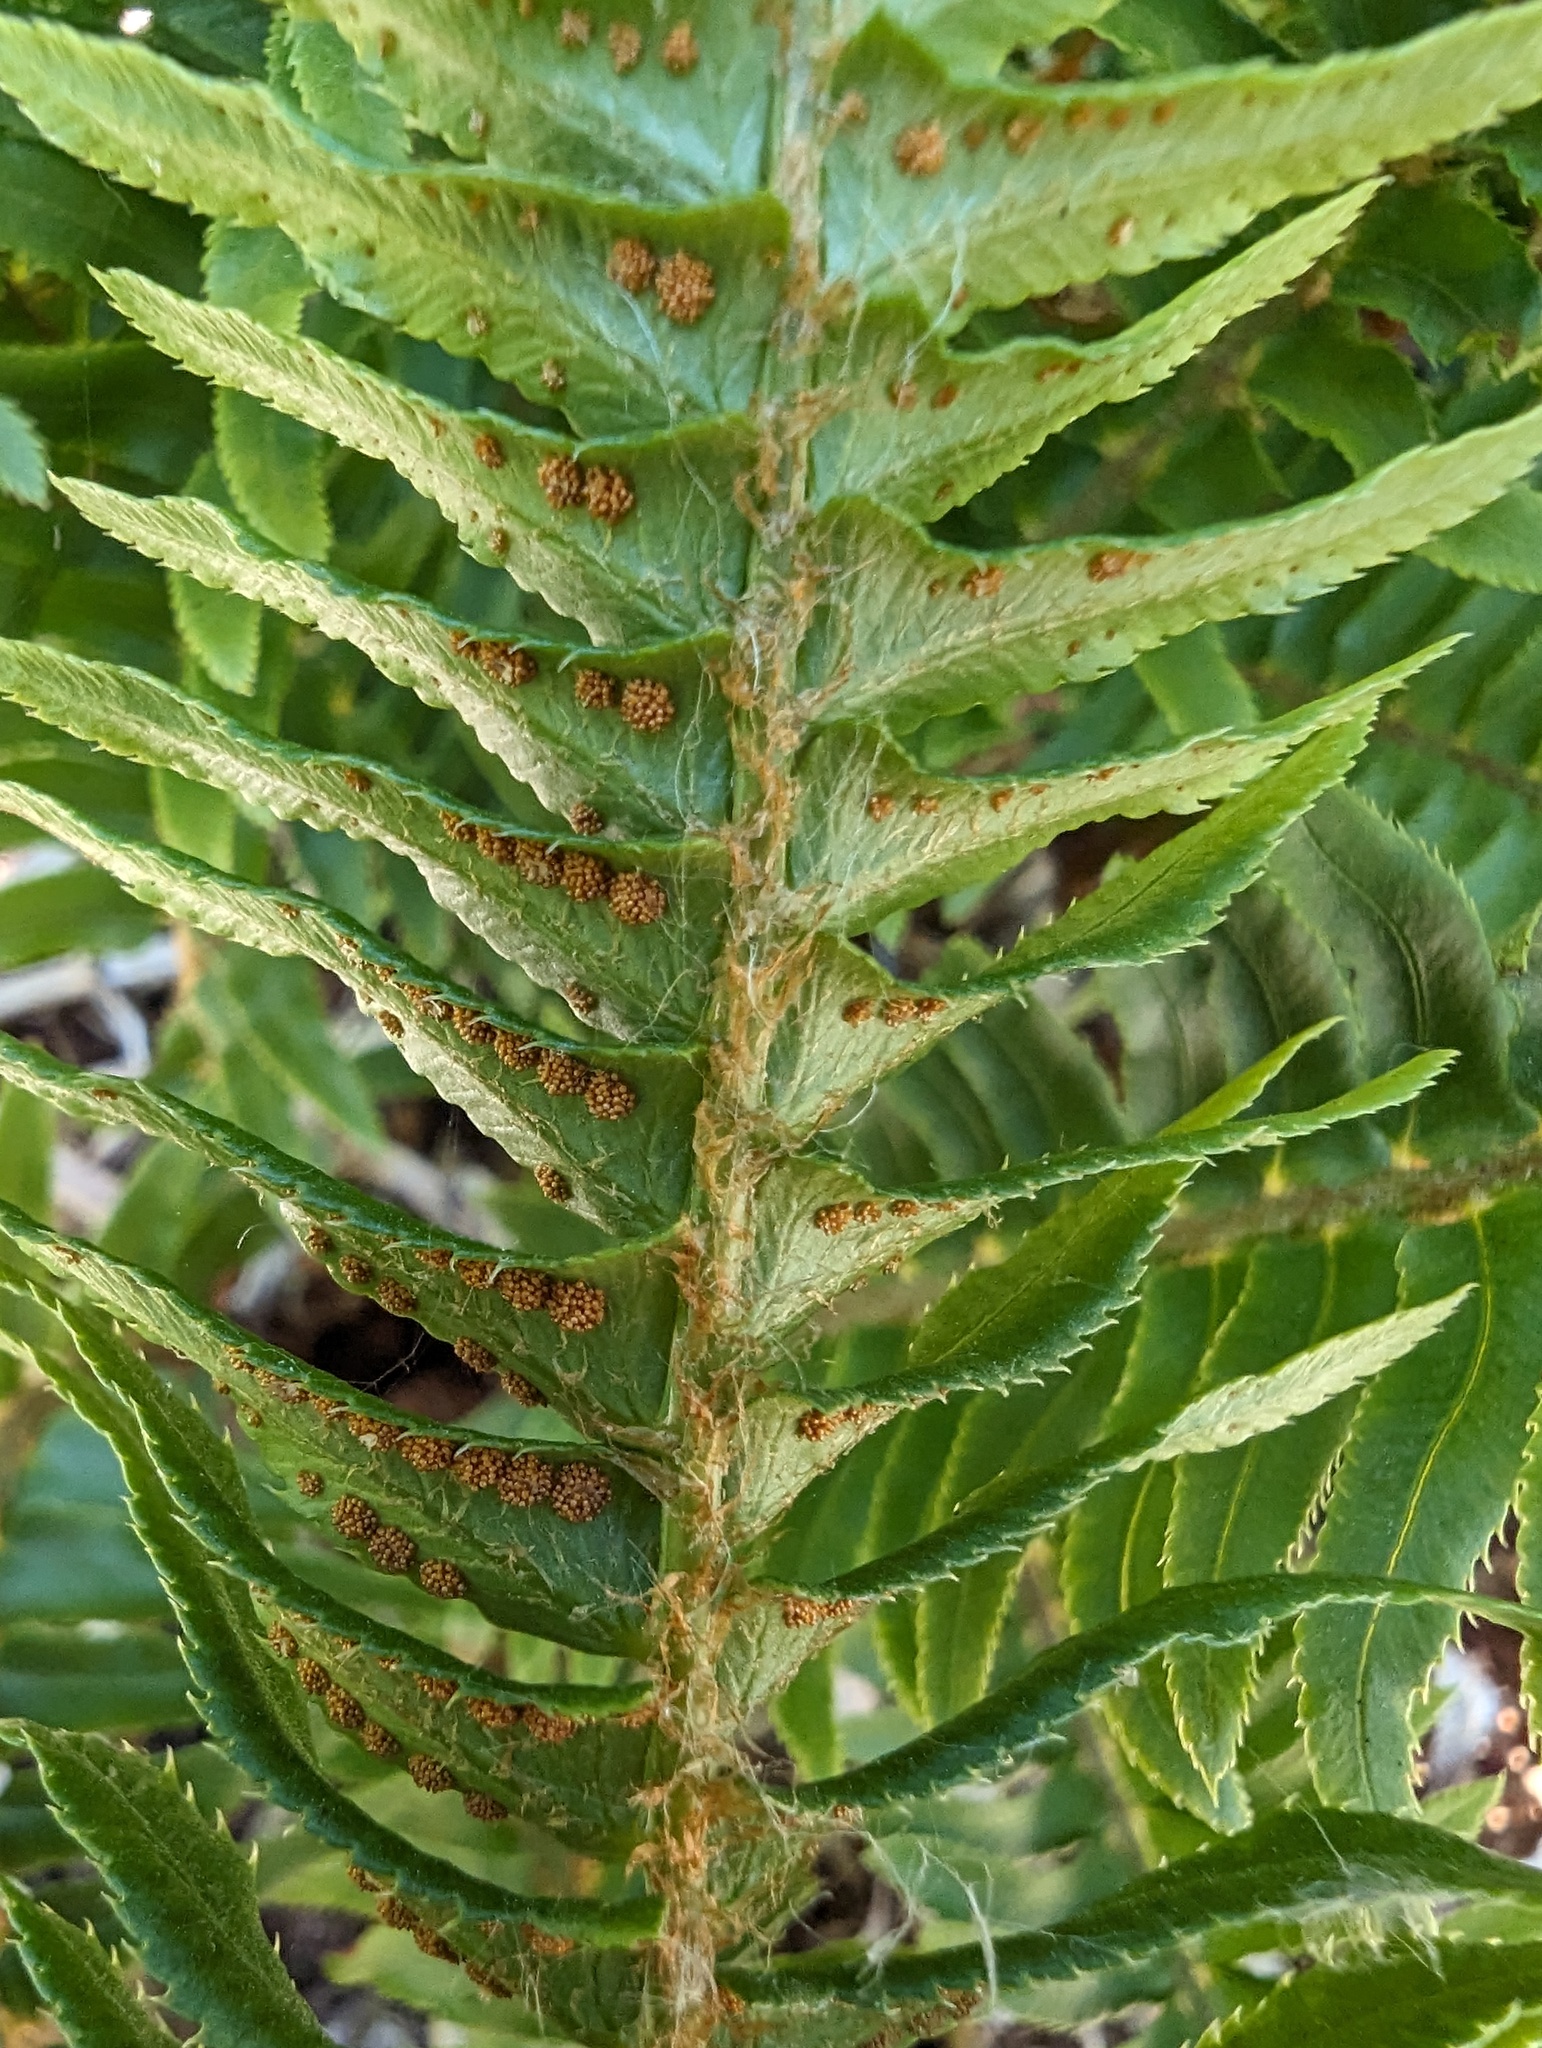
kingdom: Plantae
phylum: Tracheophyta
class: Polypodiopsida
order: Polypodiales
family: Dryopteridaceae
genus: Polystichum
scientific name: Polystichum munitum
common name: Western sword-fern
